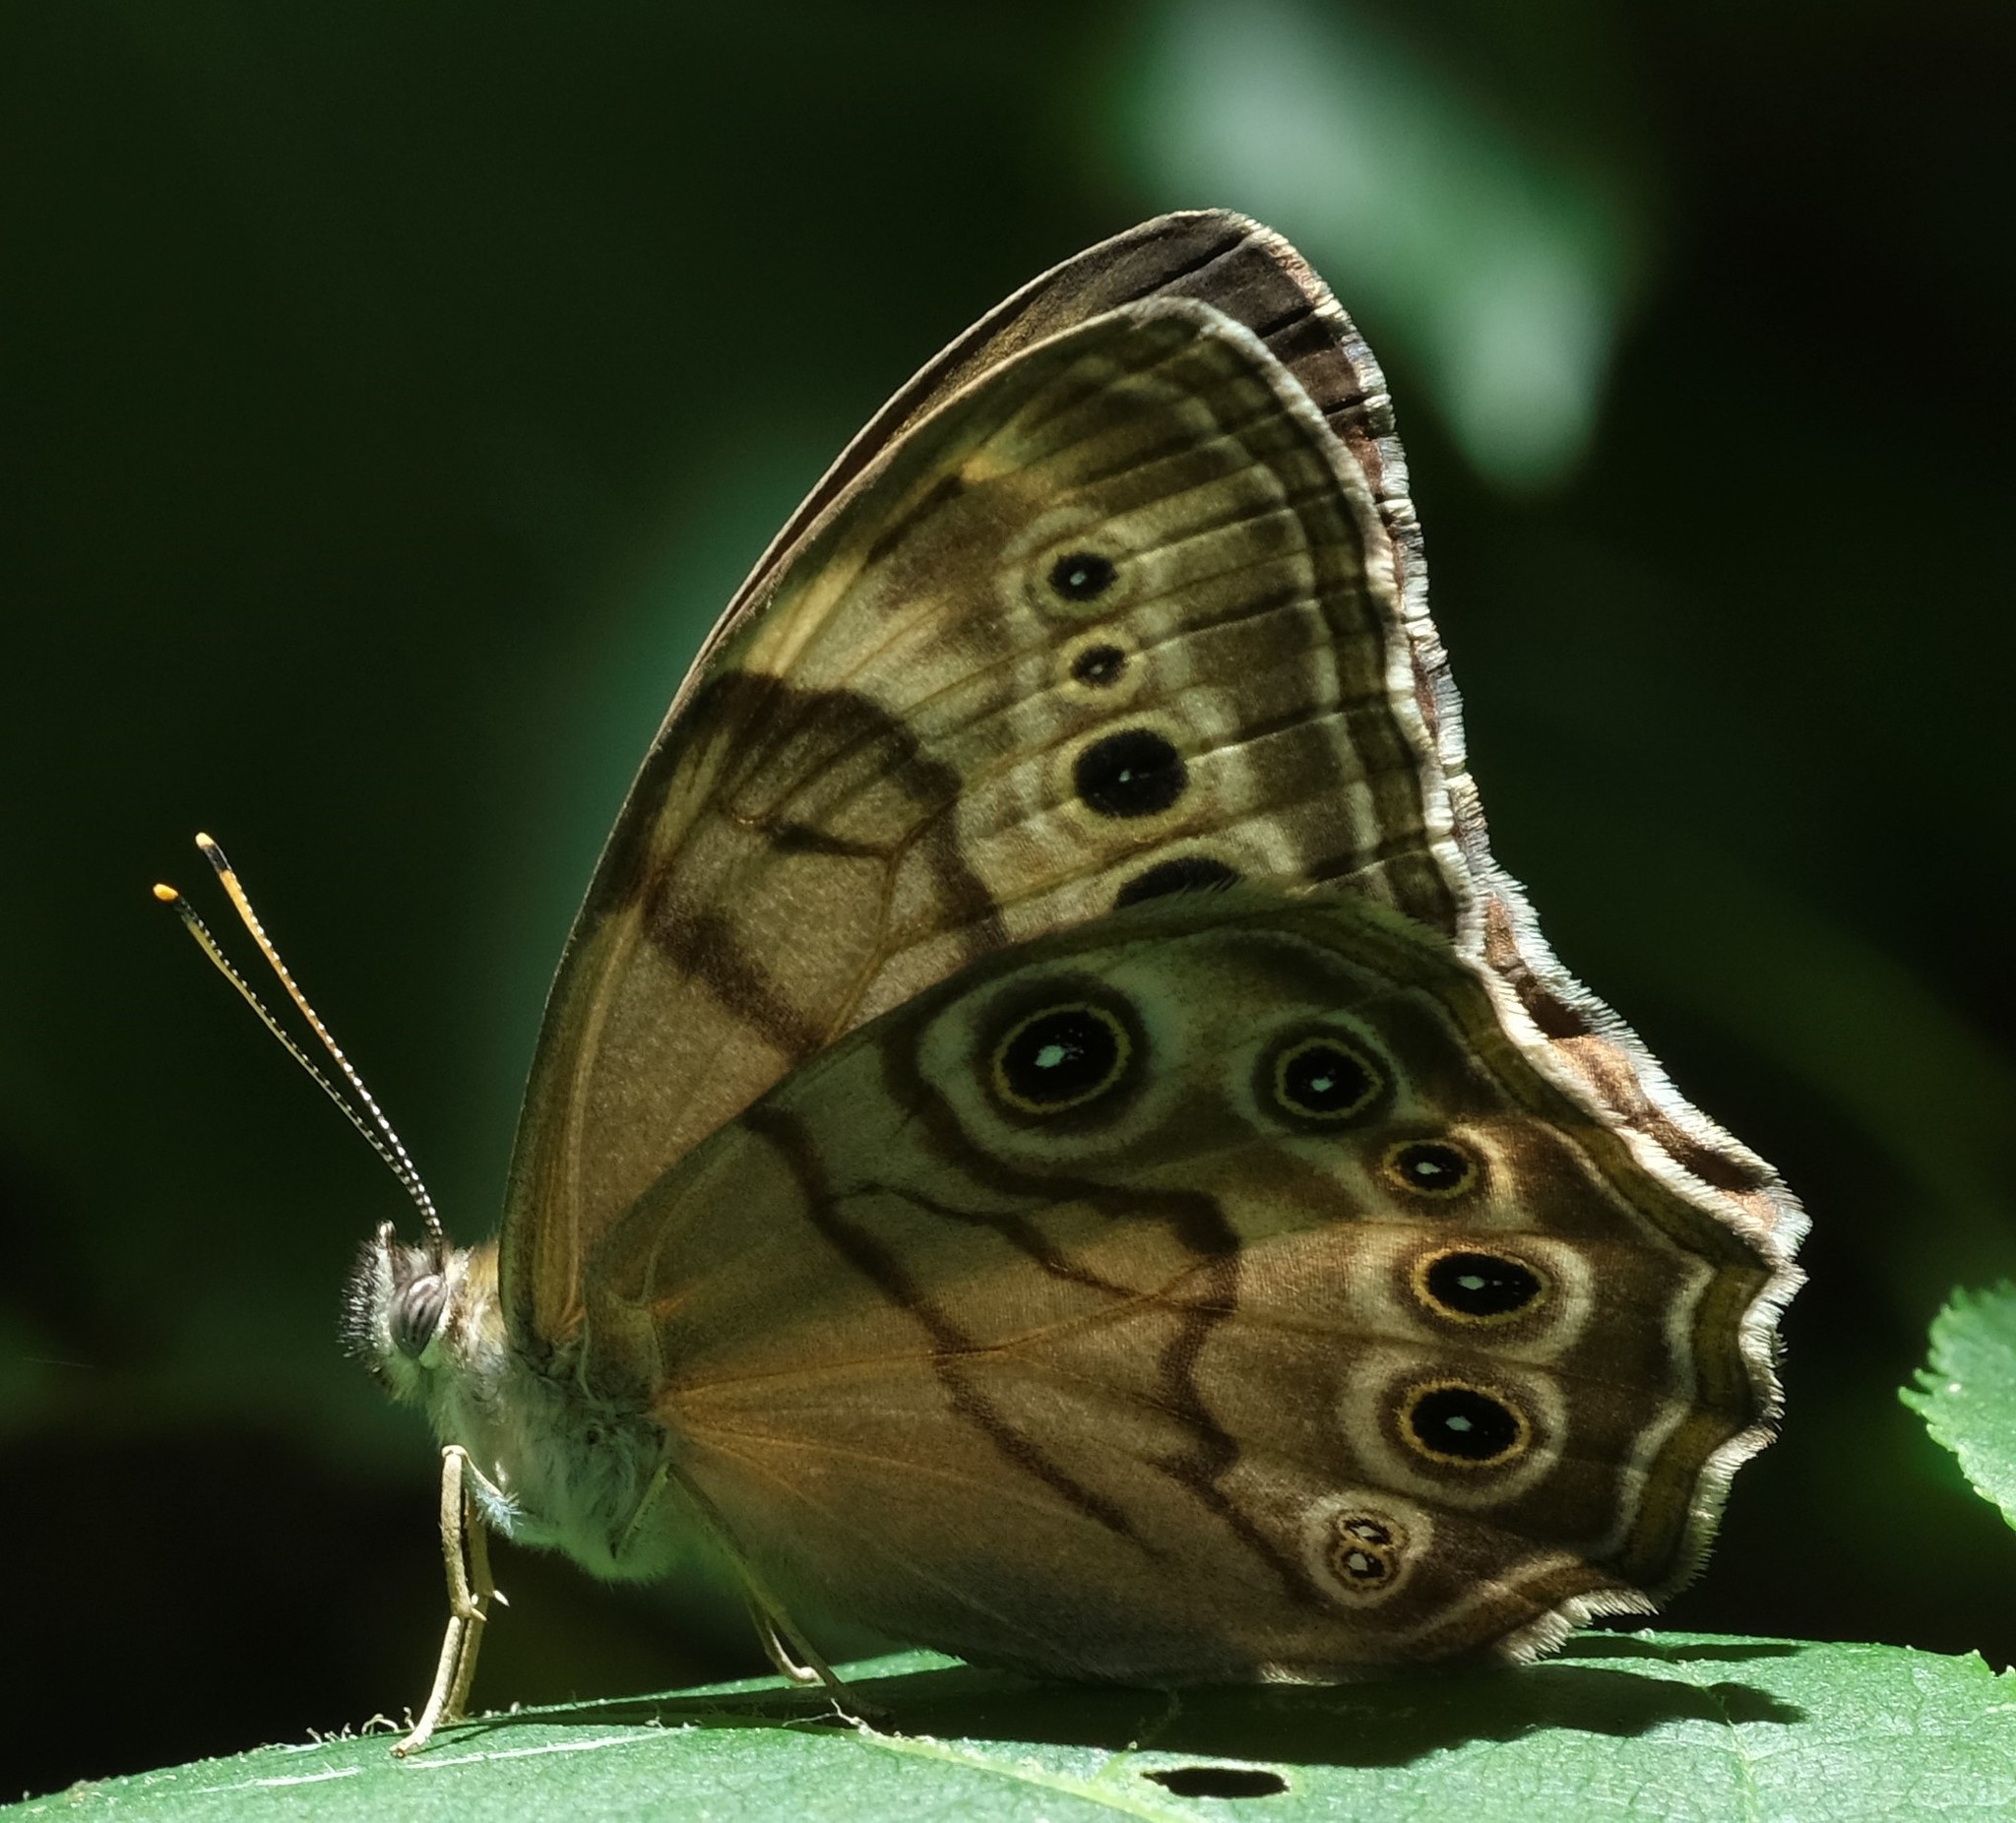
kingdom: Animalia
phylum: Arthropoda
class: Insecta
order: Lepidoptera
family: Nymphalidae
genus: Lethe
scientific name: Lethe anthedon
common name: Northern pearly-eye
